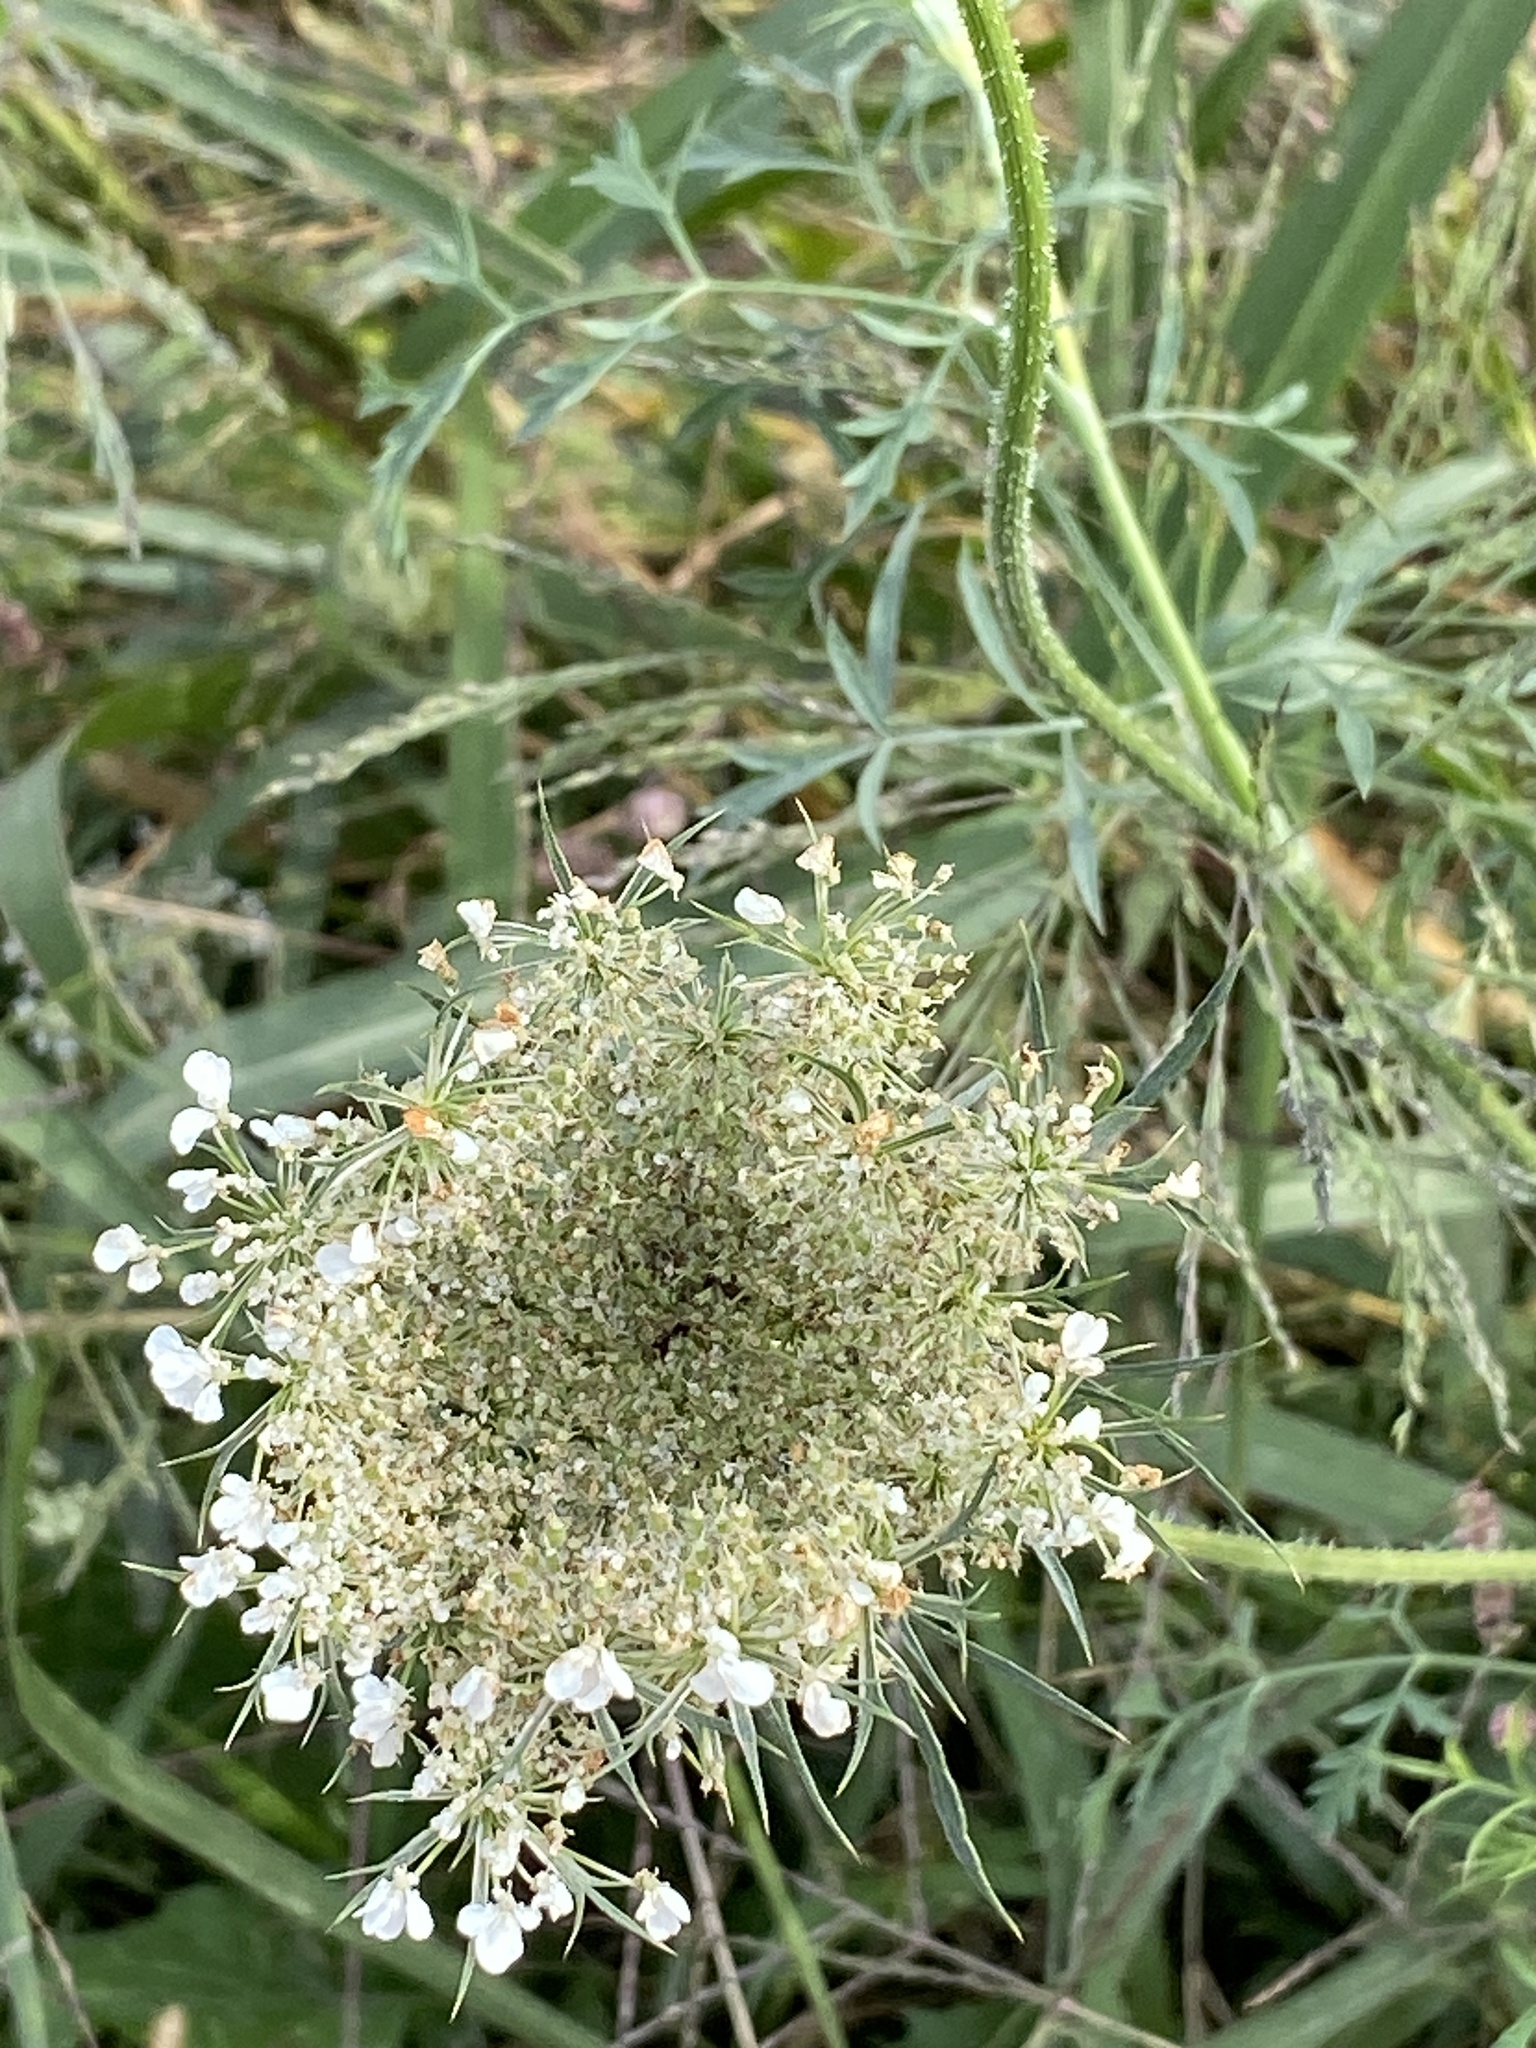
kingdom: Plantae
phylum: Tracheophyta
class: Magnoliopsida
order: Apiales
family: Apiaceae
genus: Daucus
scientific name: Daucus carota
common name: Wild carrot
